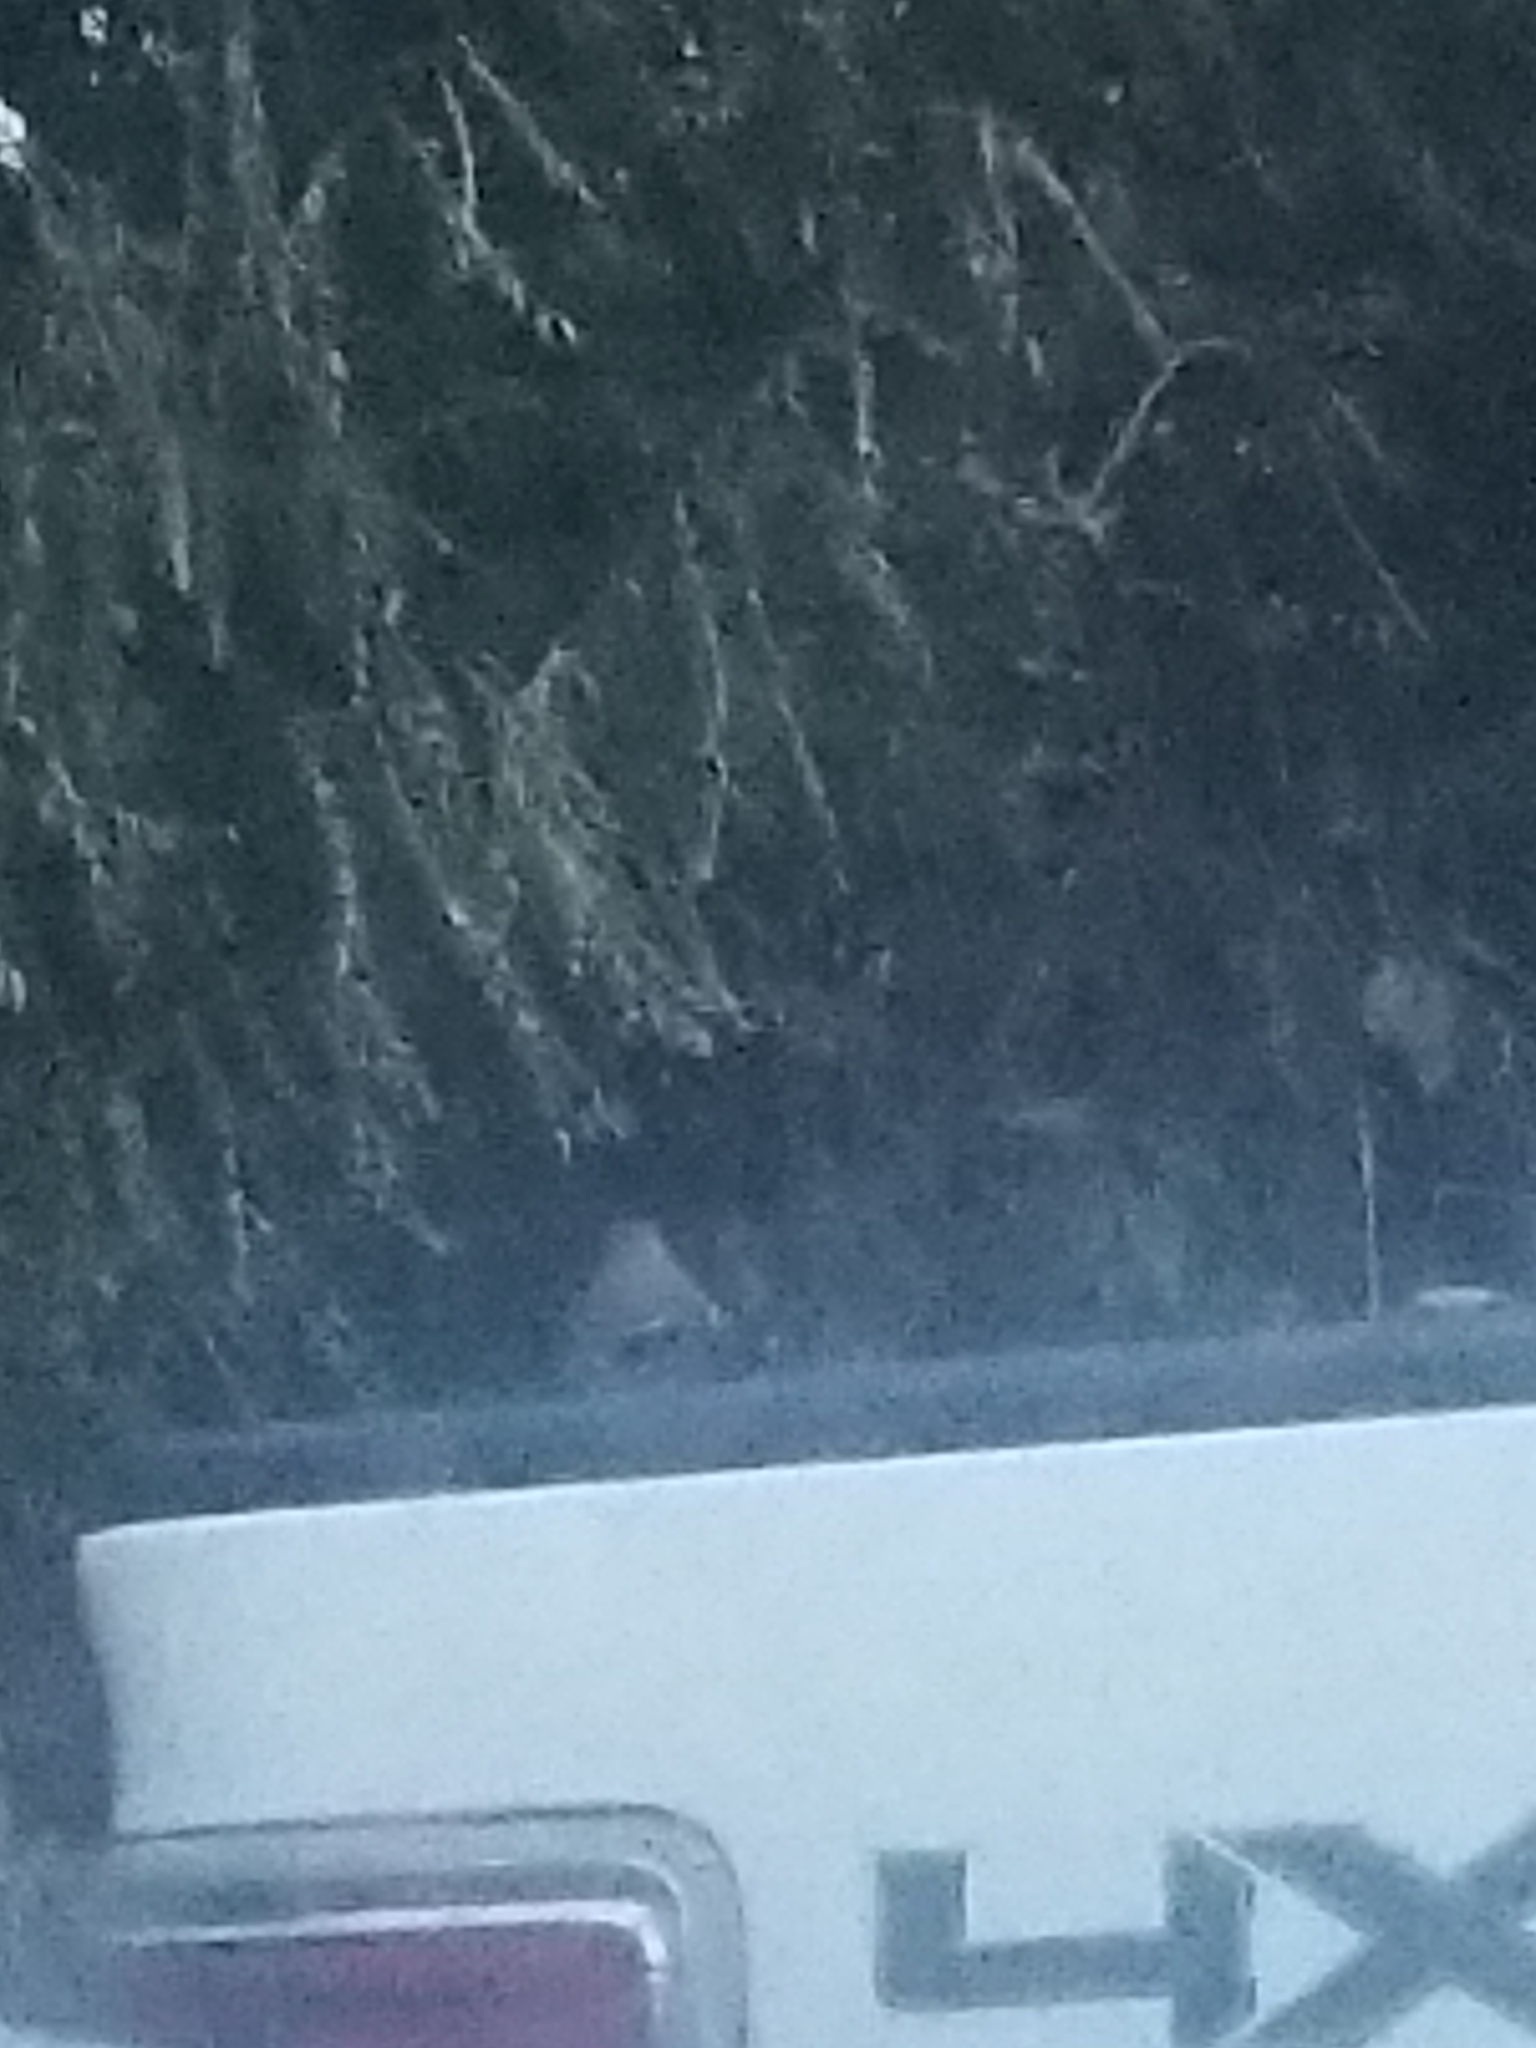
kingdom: Animalia
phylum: Chordata
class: Aves
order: Passeriformes
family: Mimidae
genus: Mimus
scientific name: Mimus polyglottos
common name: Northern mockingbird
